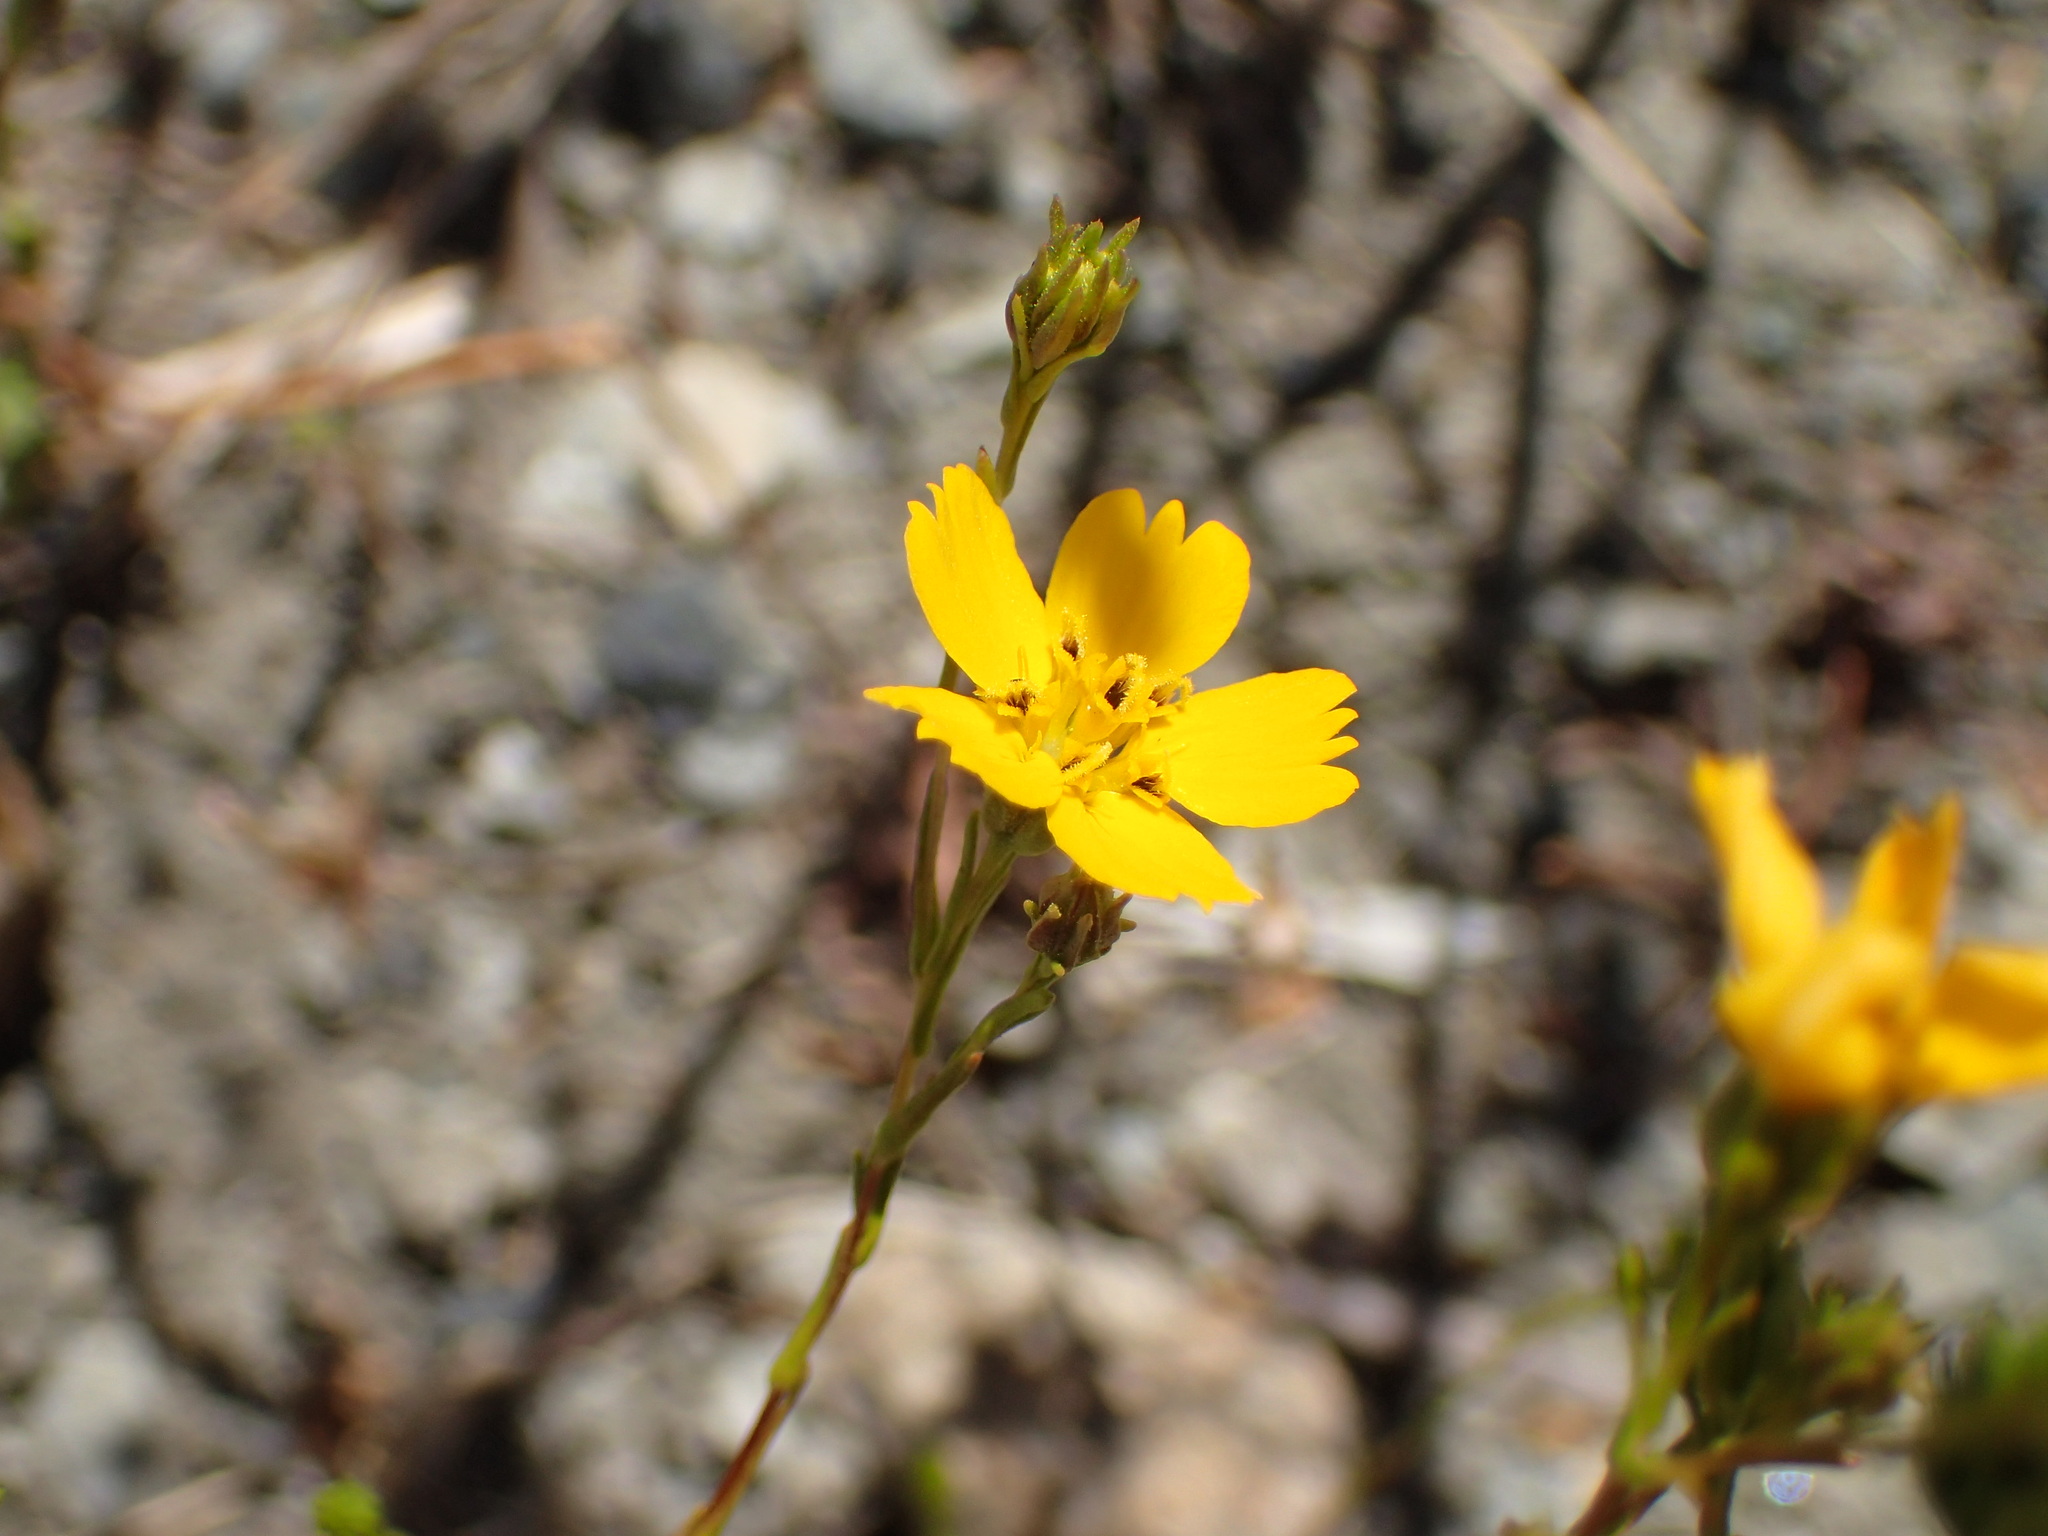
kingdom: Plantae
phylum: Tracheophyta
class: Magnoliopsida
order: Asterales
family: Asteraceae
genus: Deinandra
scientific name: Deinandra fasciculata
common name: Clustered tarweed
